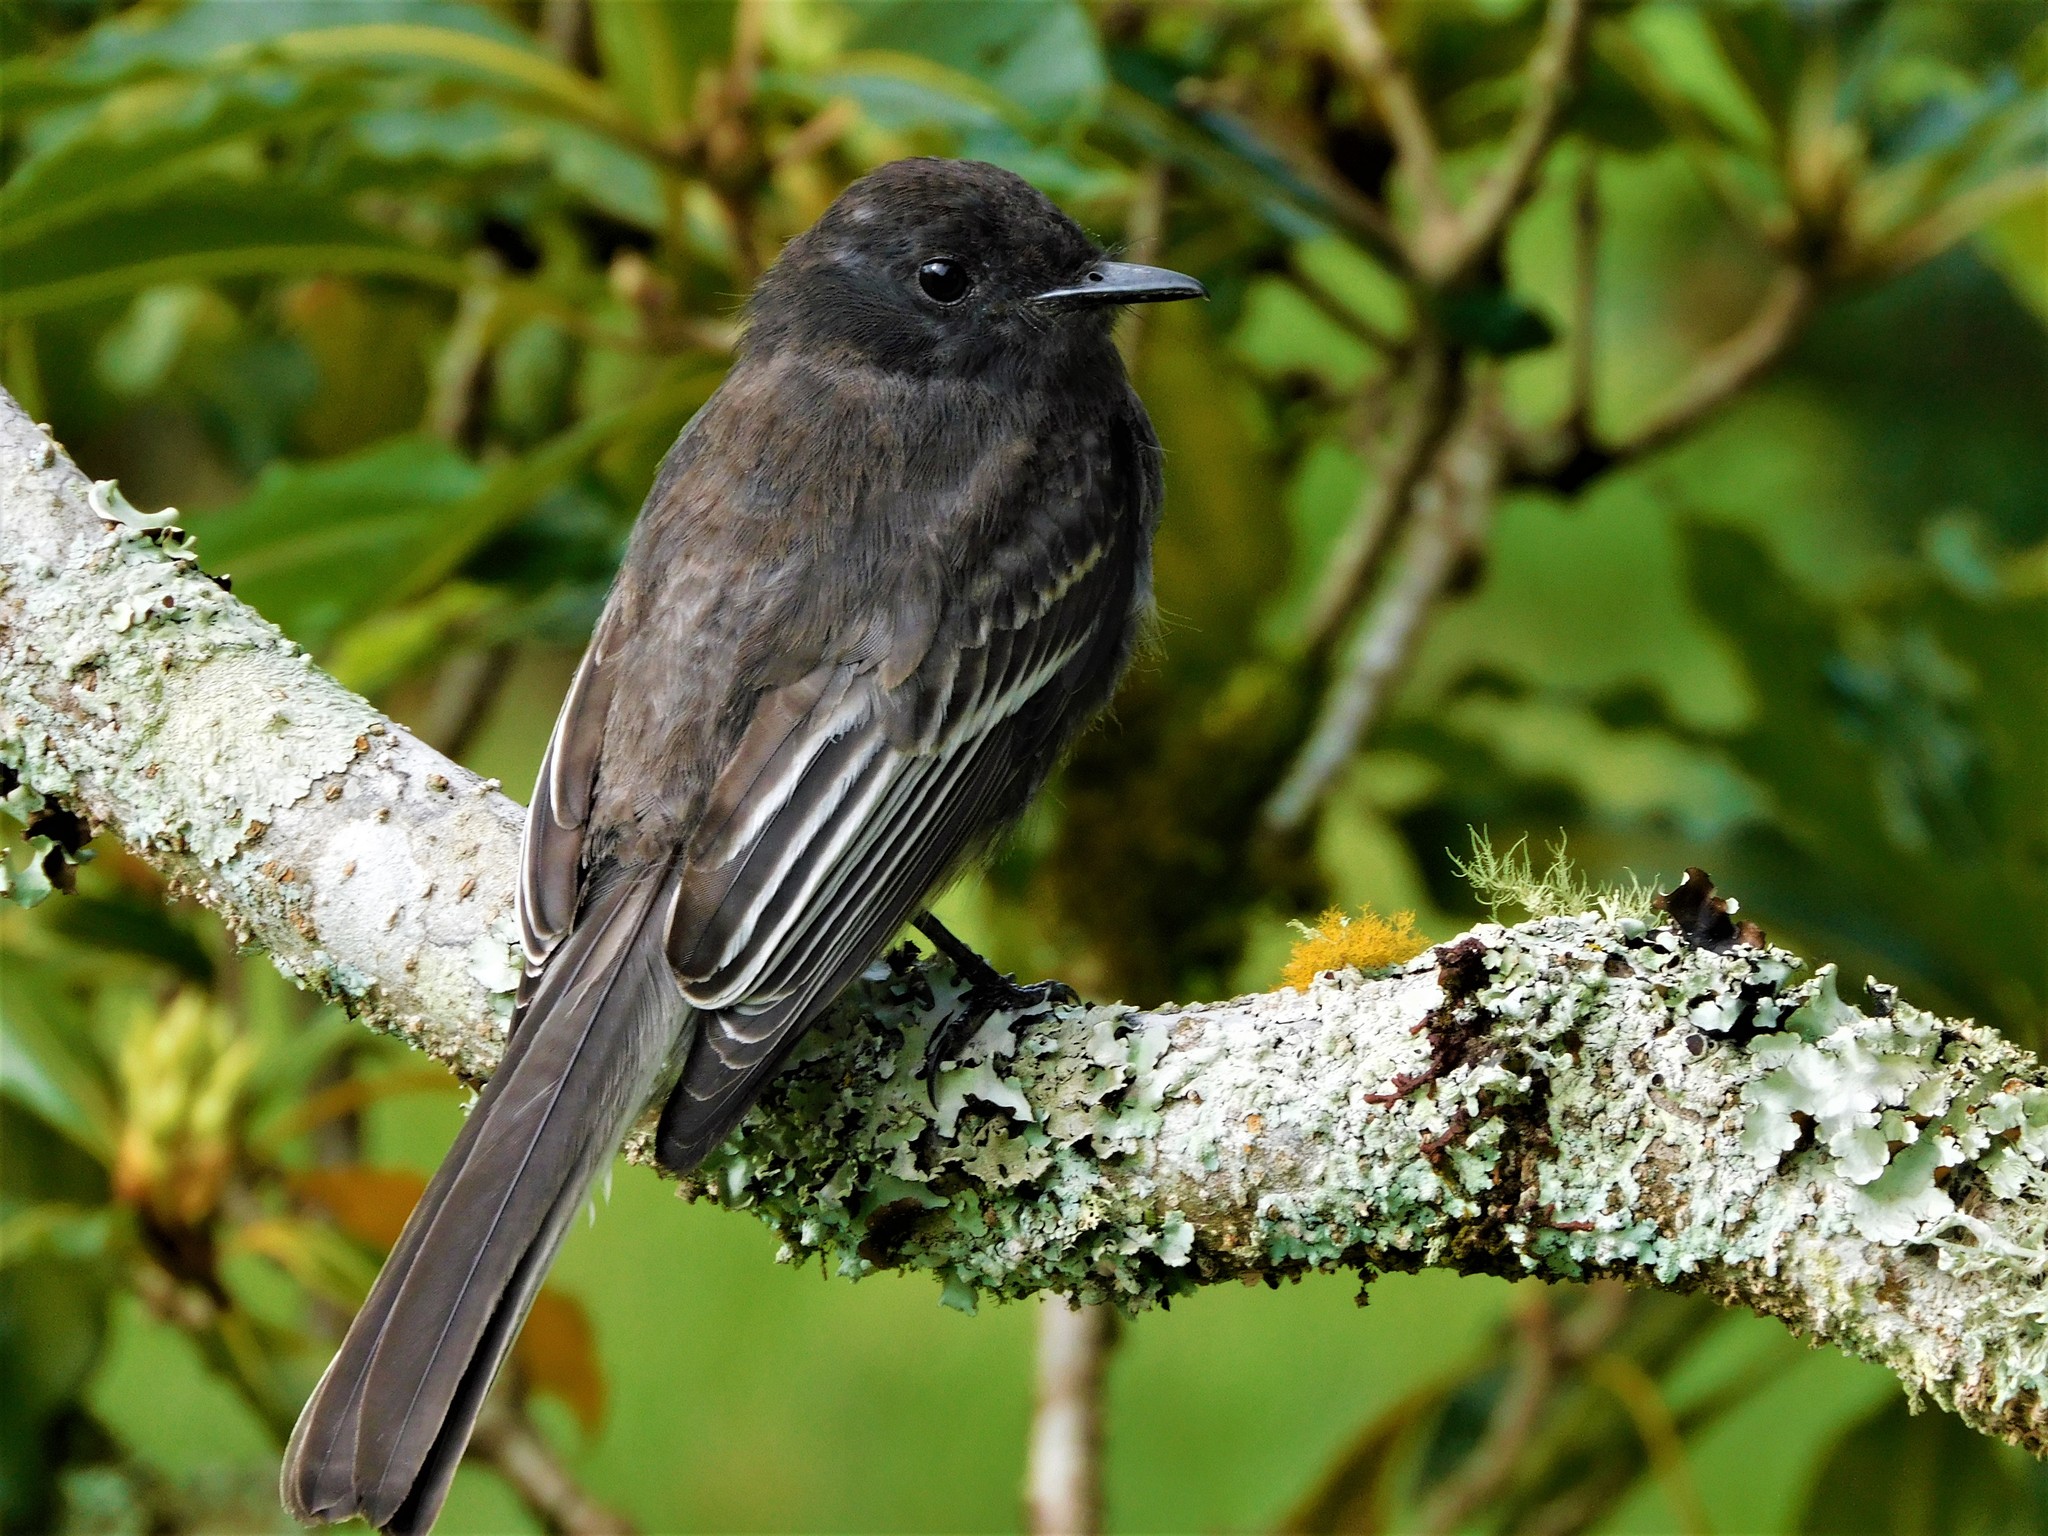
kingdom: Animalia
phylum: Chordata
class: Aves
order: Passeriformes
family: Tyrannidae
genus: Sayornis
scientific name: Sayornis nigricans
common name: Black phoebe
